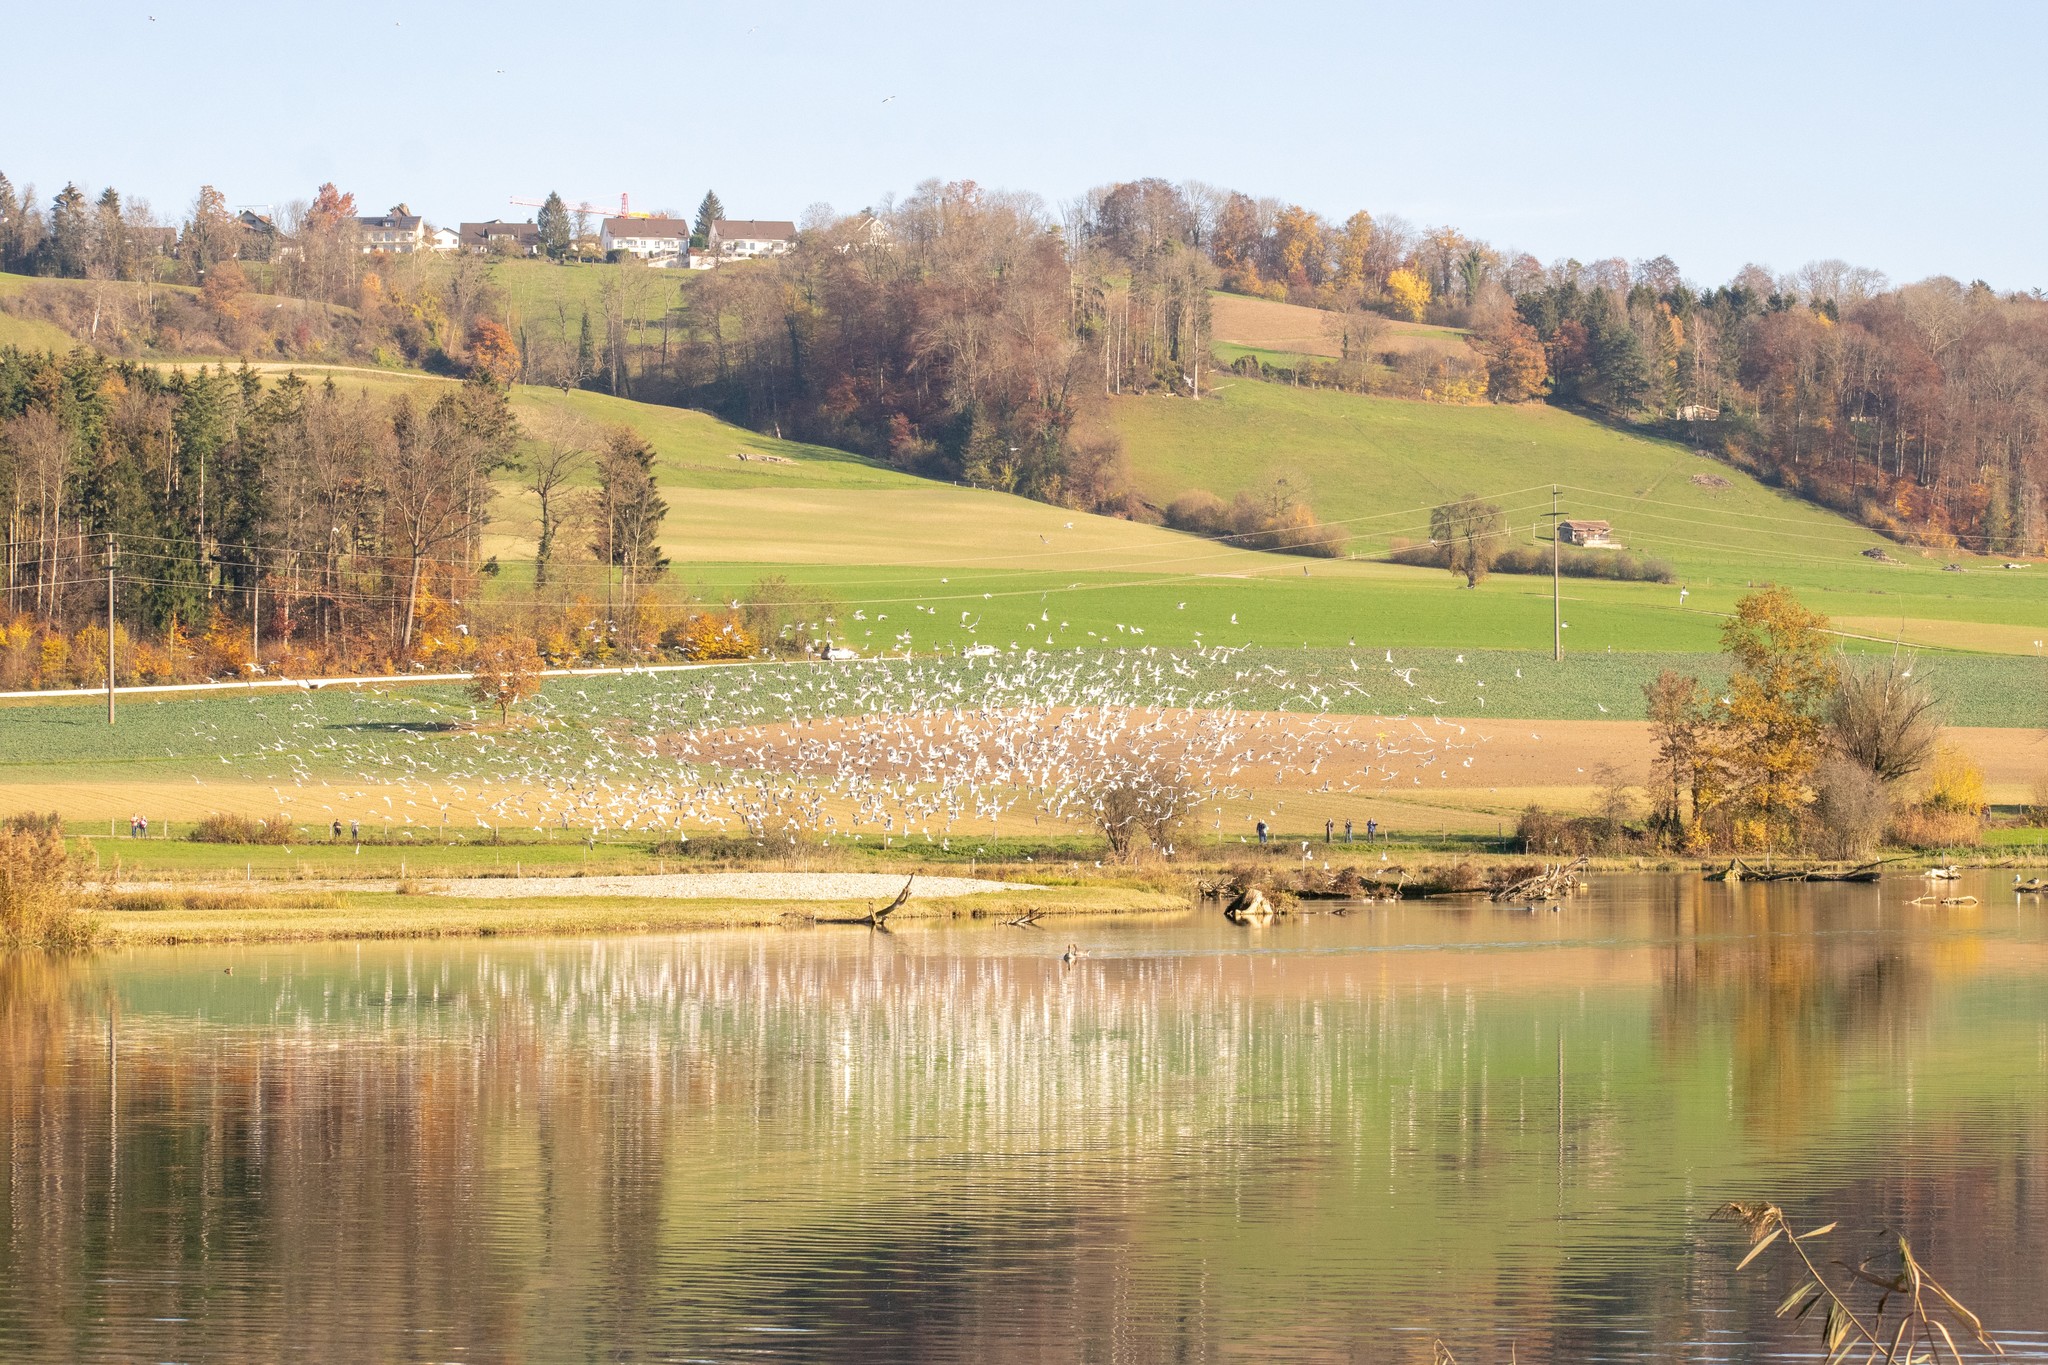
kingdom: Animalia
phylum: Chordata
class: Aves
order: Charadriiformes
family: Laridae
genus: Chroicocephalus
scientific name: Chroicocephalus ridibundus
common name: Black-headed gull
